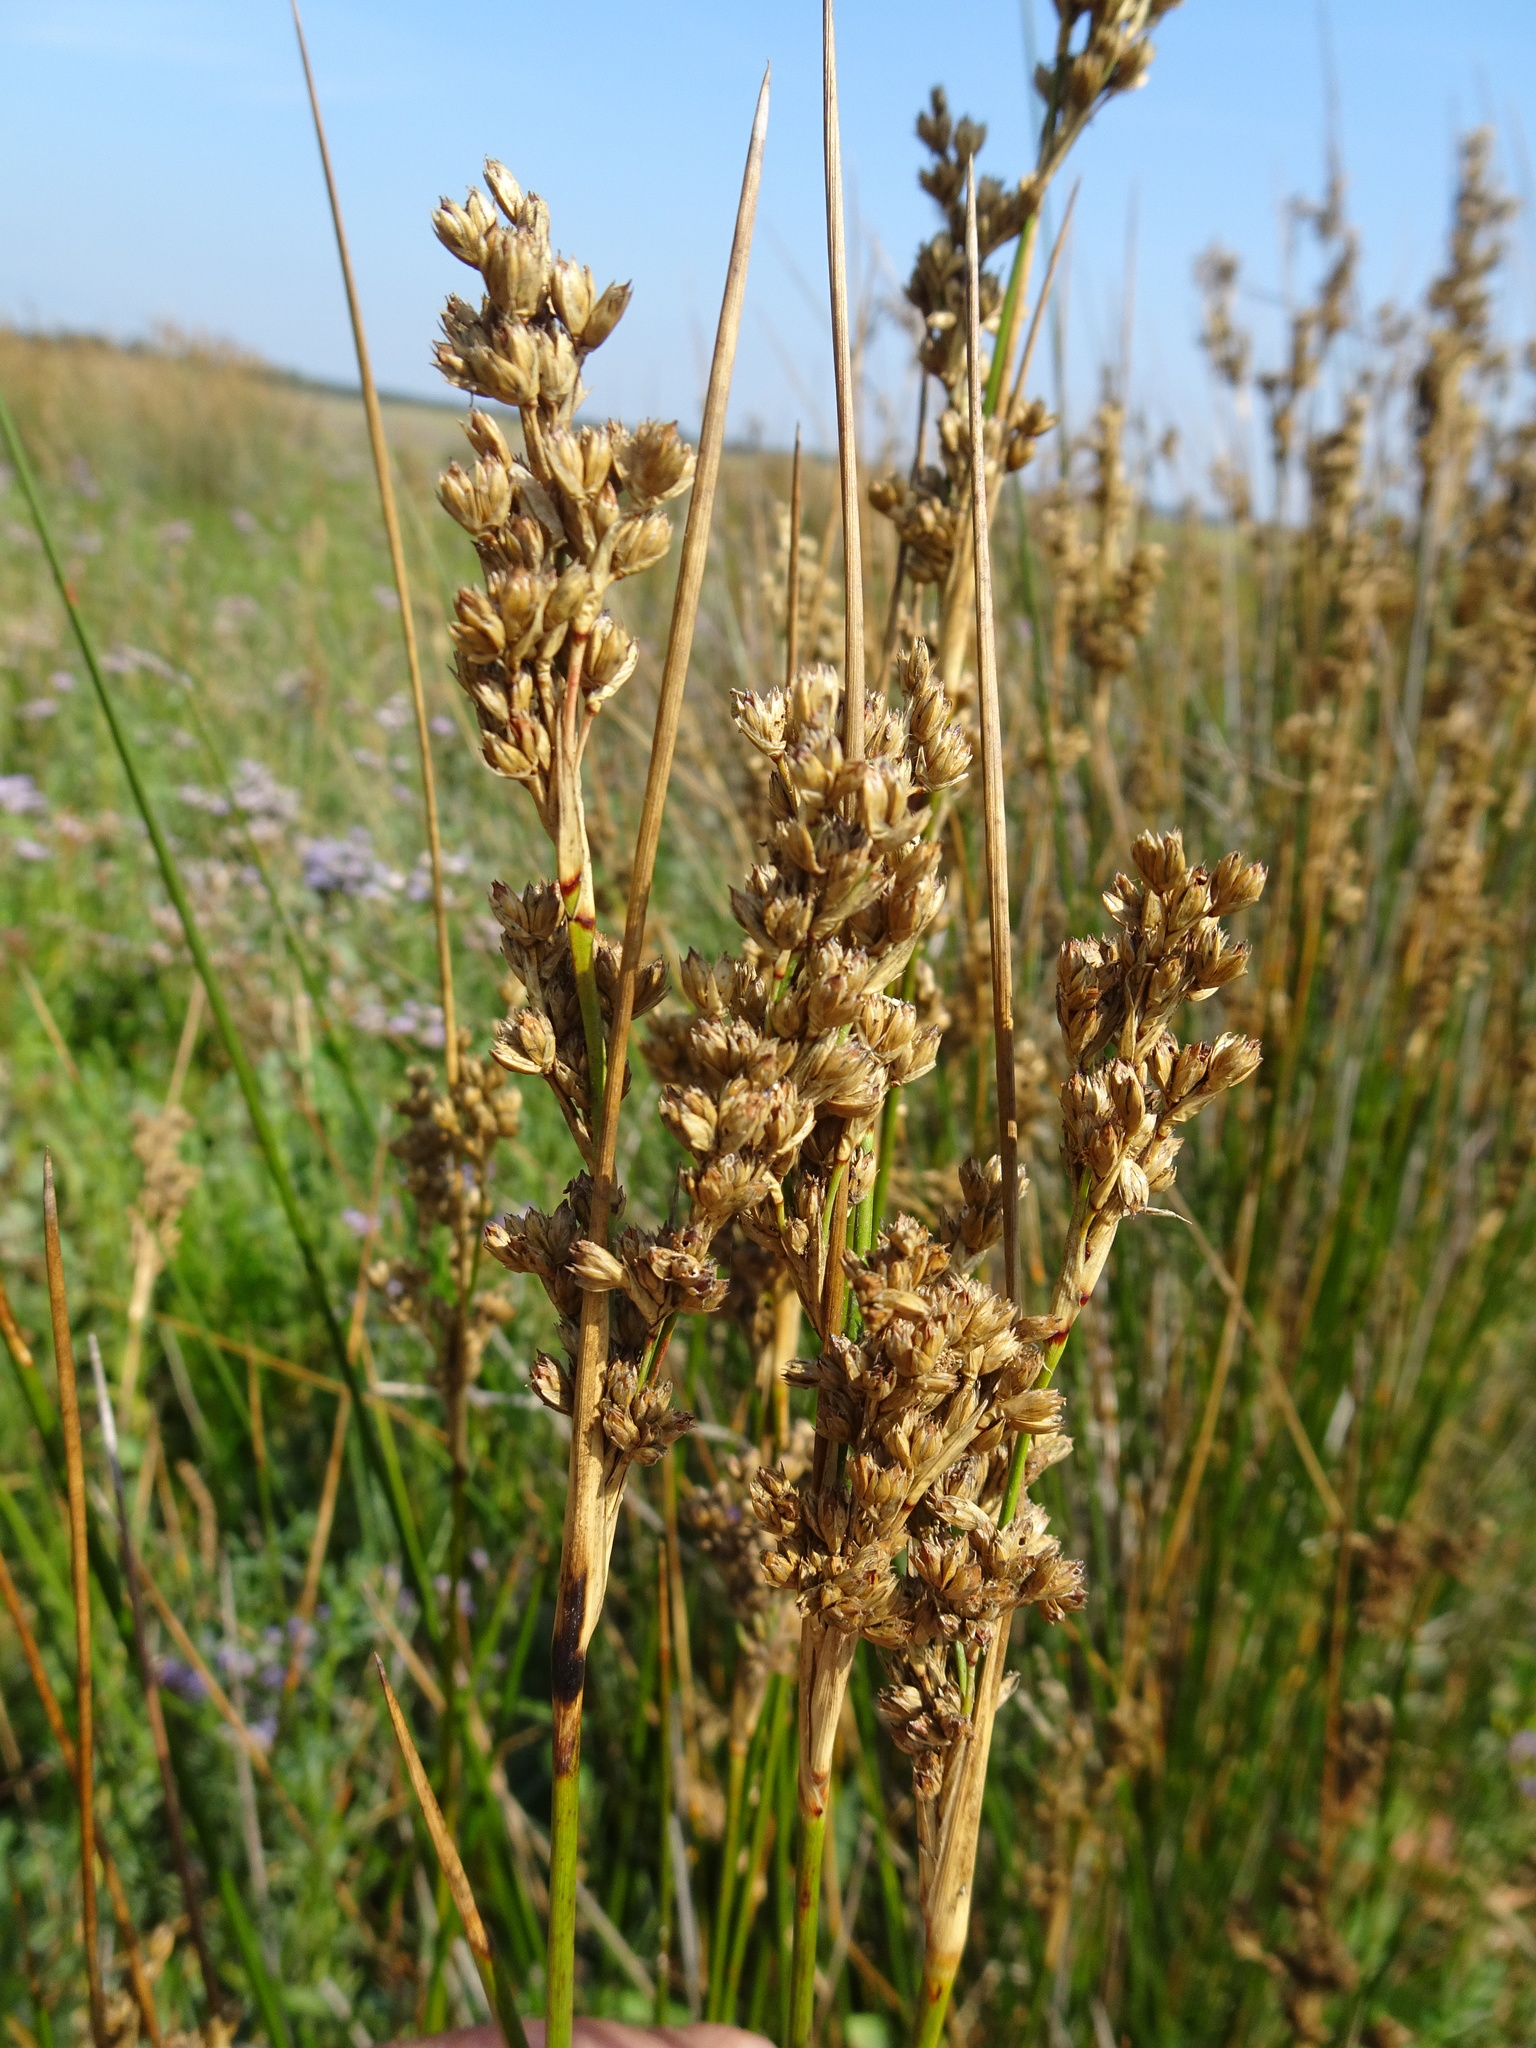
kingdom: Plantae
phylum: Tracheophyta
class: Liliopsida
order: Poales
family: Juncaceae
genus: Juncus
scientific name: Juncus maritimus
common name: Sea rush
